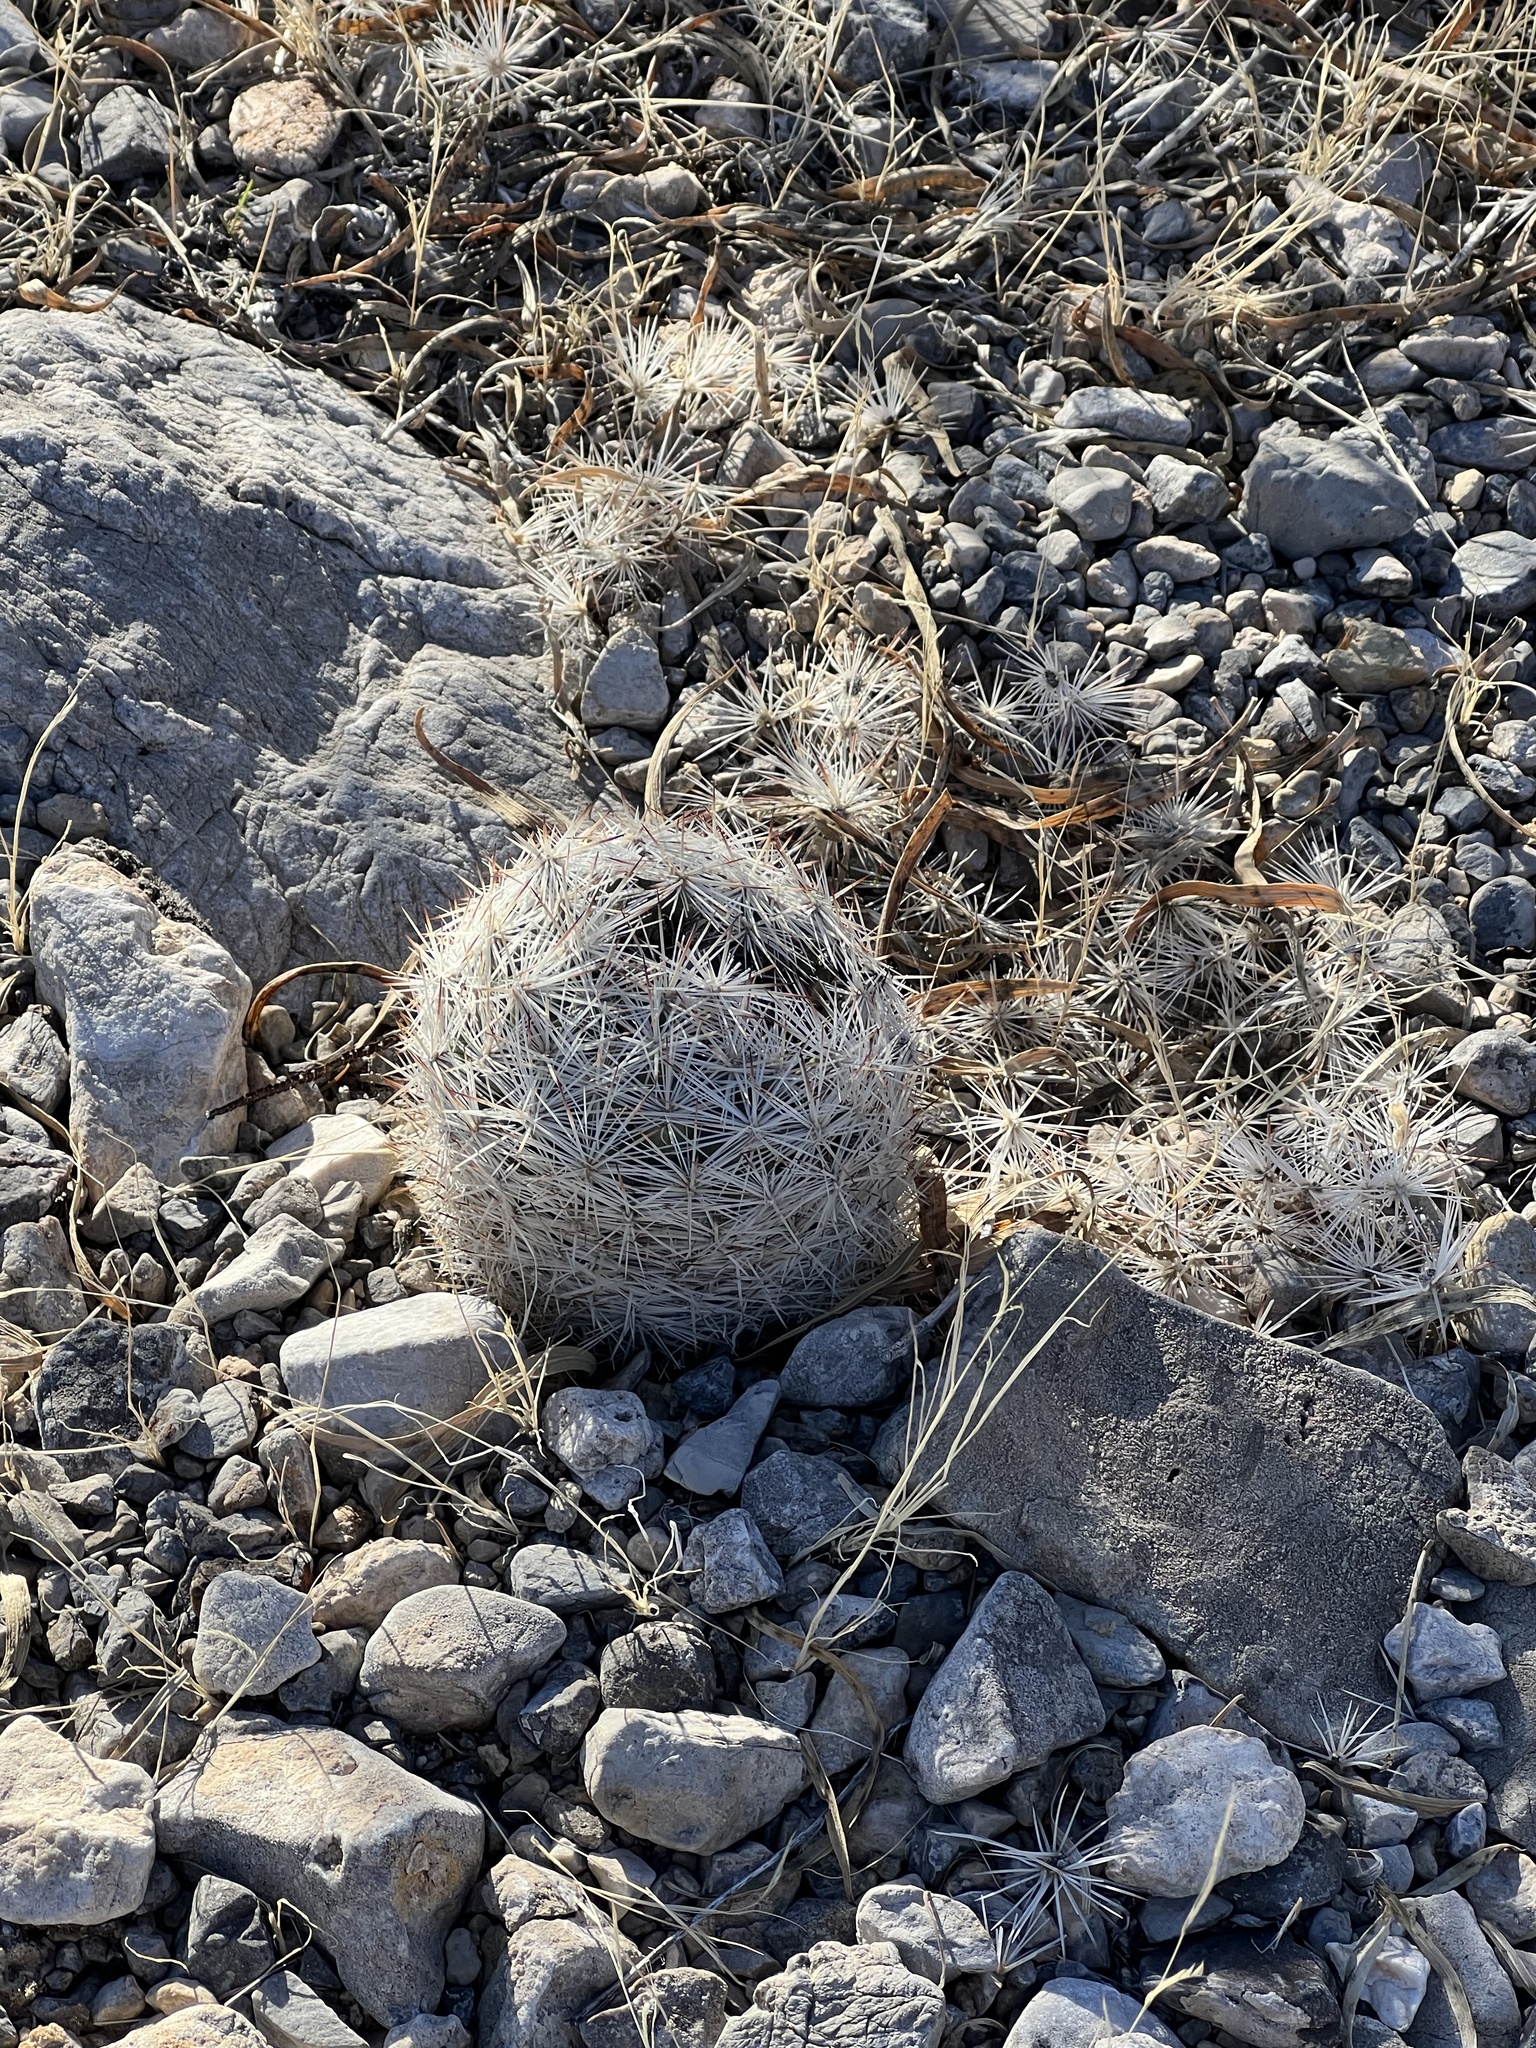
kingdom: Plantae
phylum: Tracheophyta
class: Magnoliopsida
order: Caryophyllales
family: Cactaceae
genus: Pelecyphora
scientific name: Pelecyphora dasyacantha
